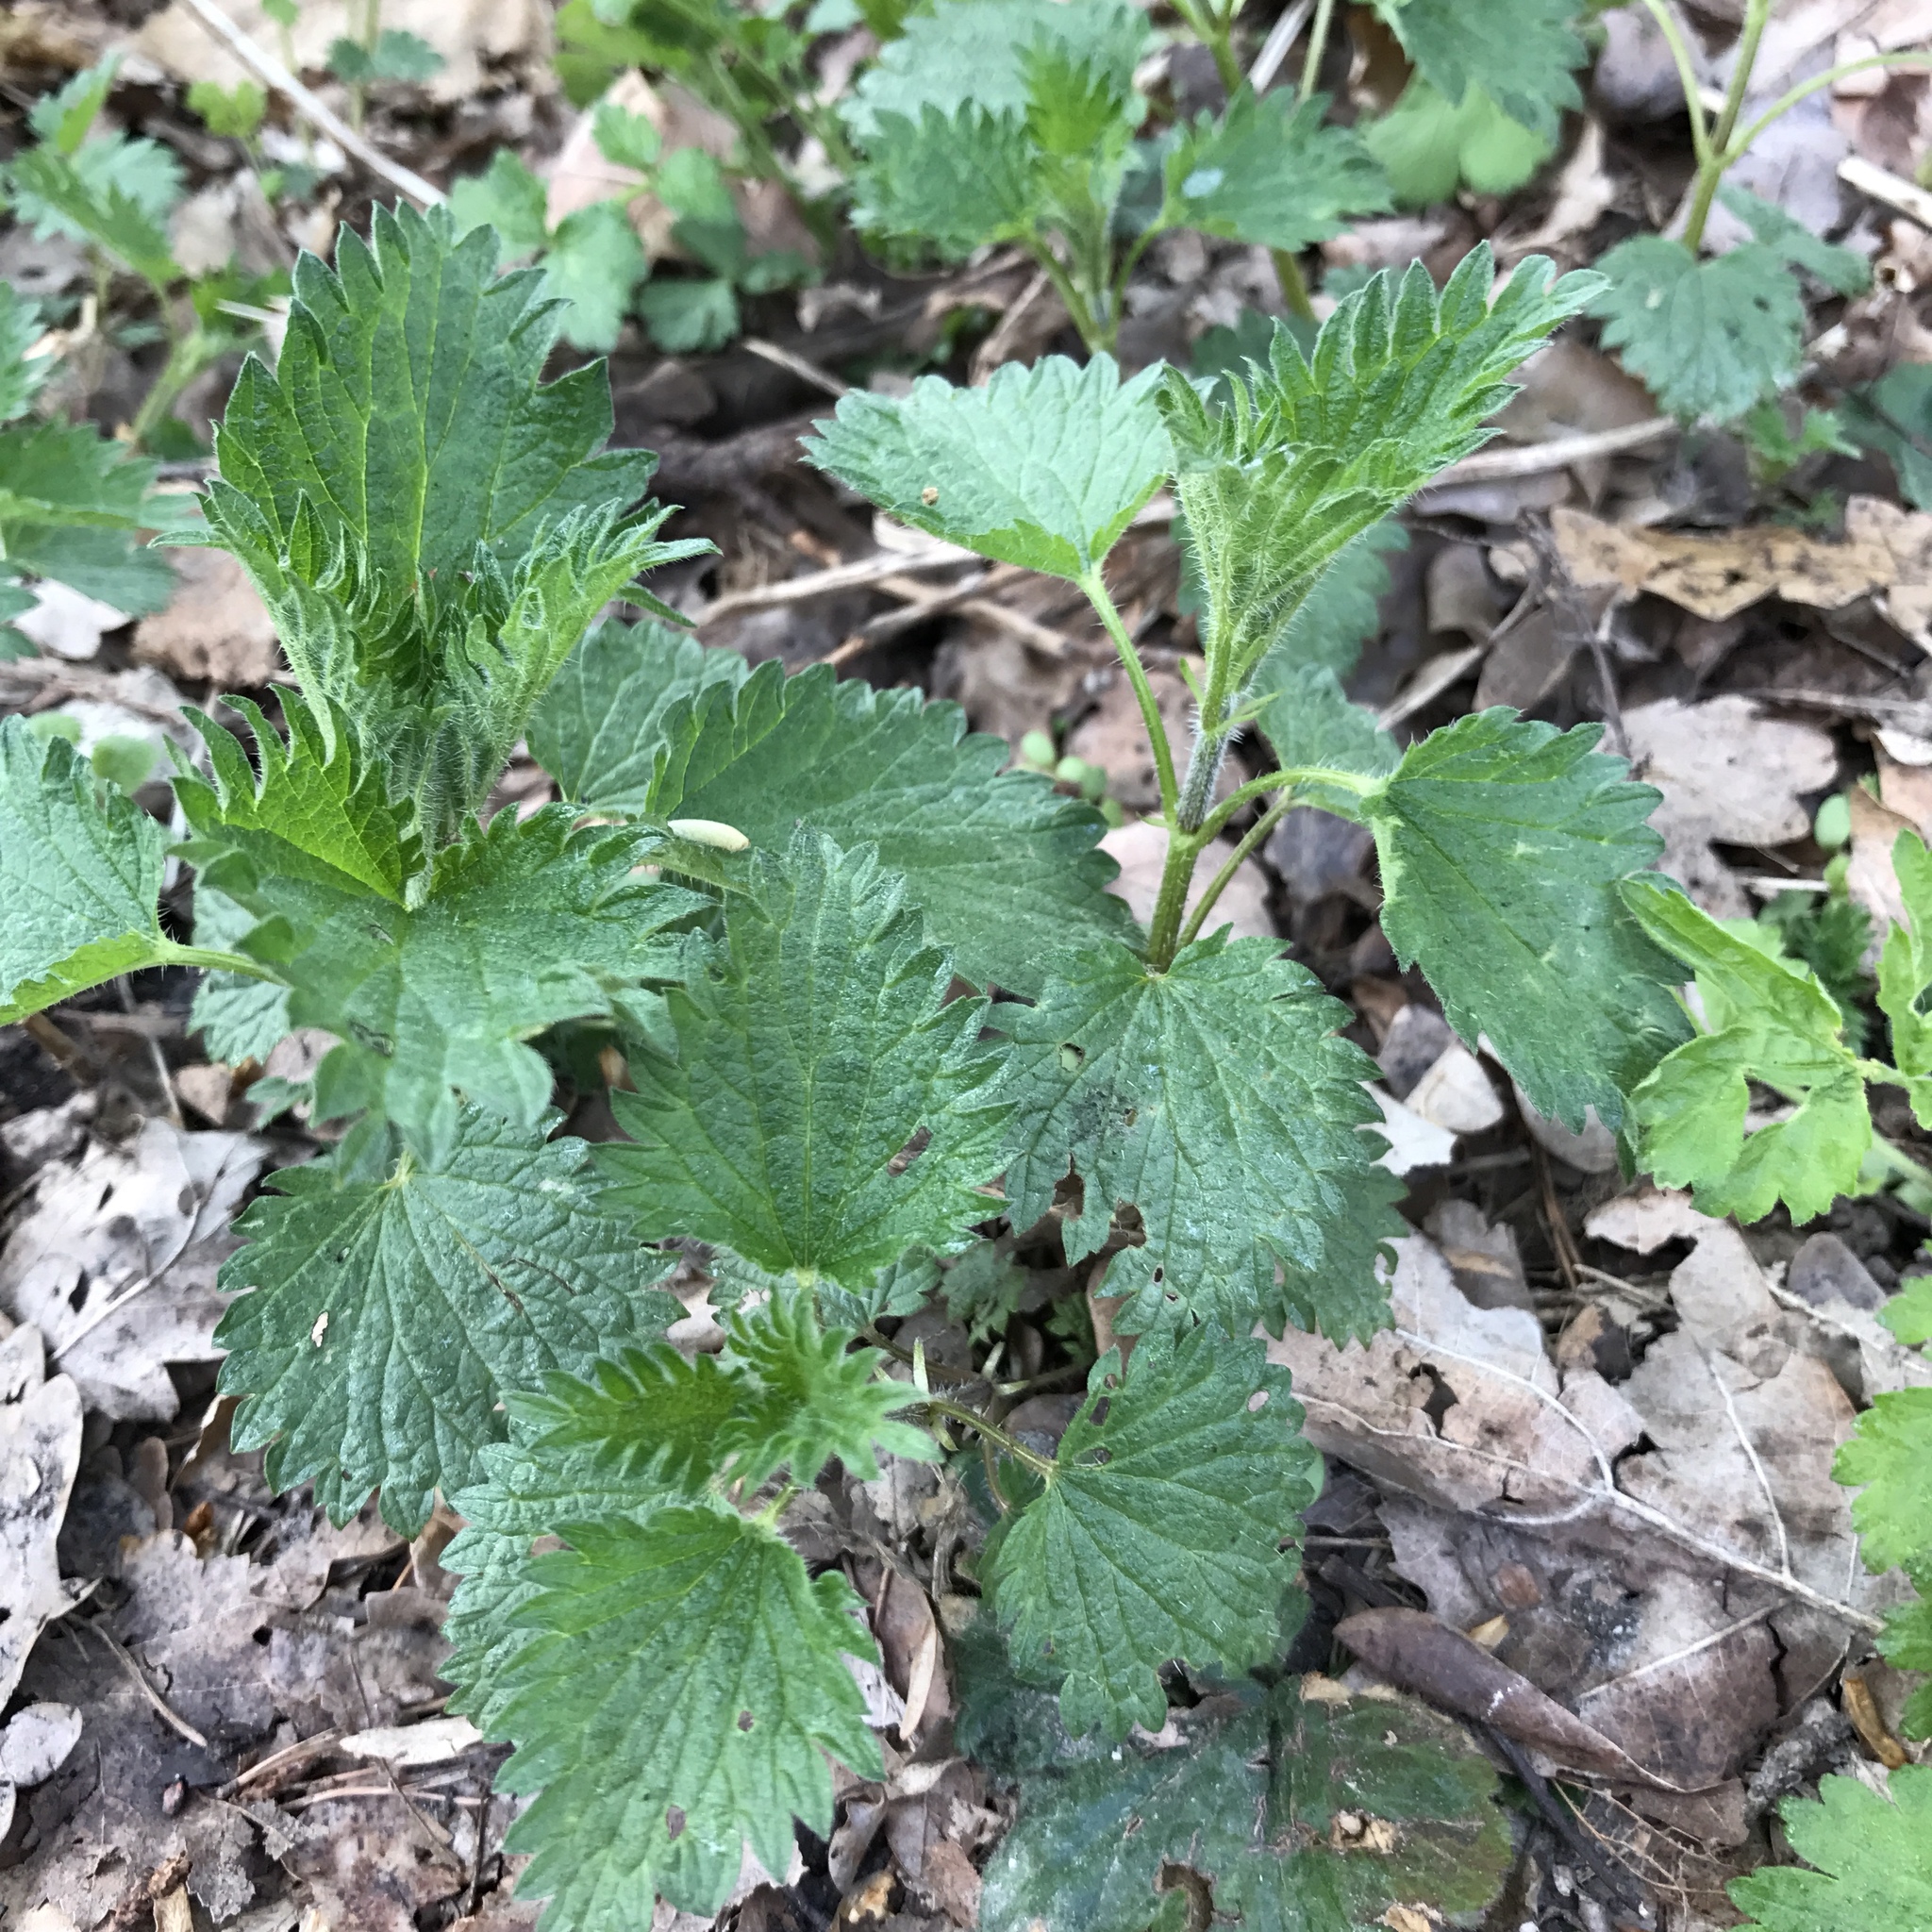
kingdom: Plantae
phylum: Tracheophyta
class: Magnoliopsida
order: Rosales
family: Urticaceae
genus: Urtica
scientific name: Urtica dioica
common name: Common nettle
